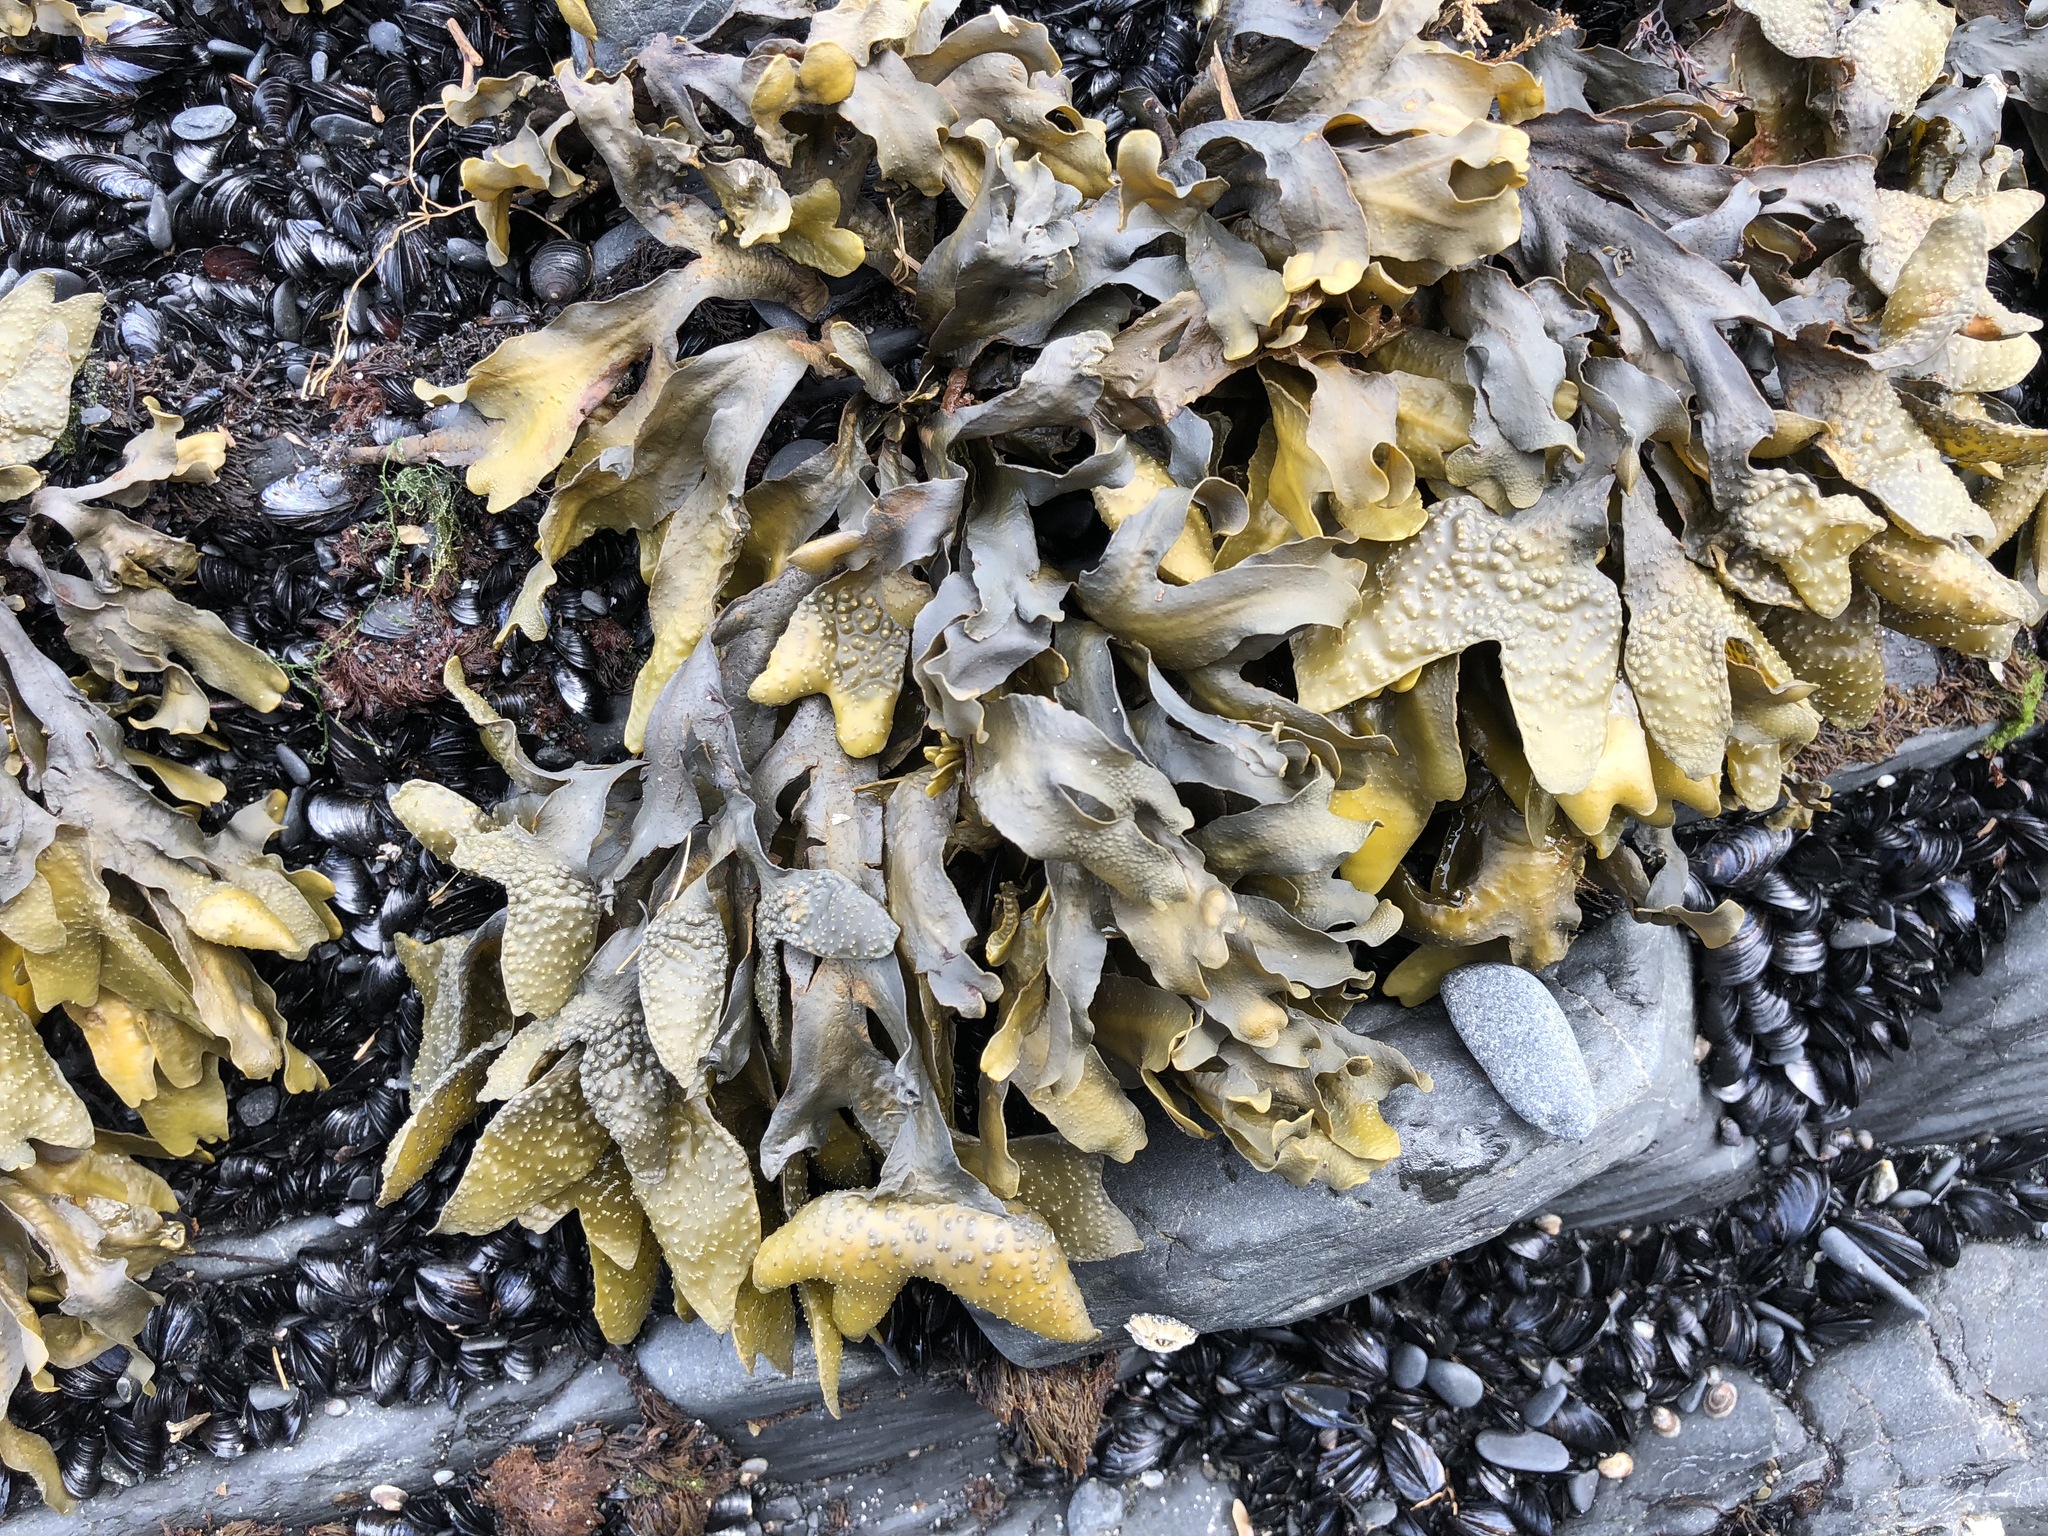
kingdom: Chromista
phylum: Ochrophyta
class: Phaeophyceae
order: Fucales
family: Fucaceae
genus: Fucus
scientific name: Fucus distichus
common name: Rockweed
